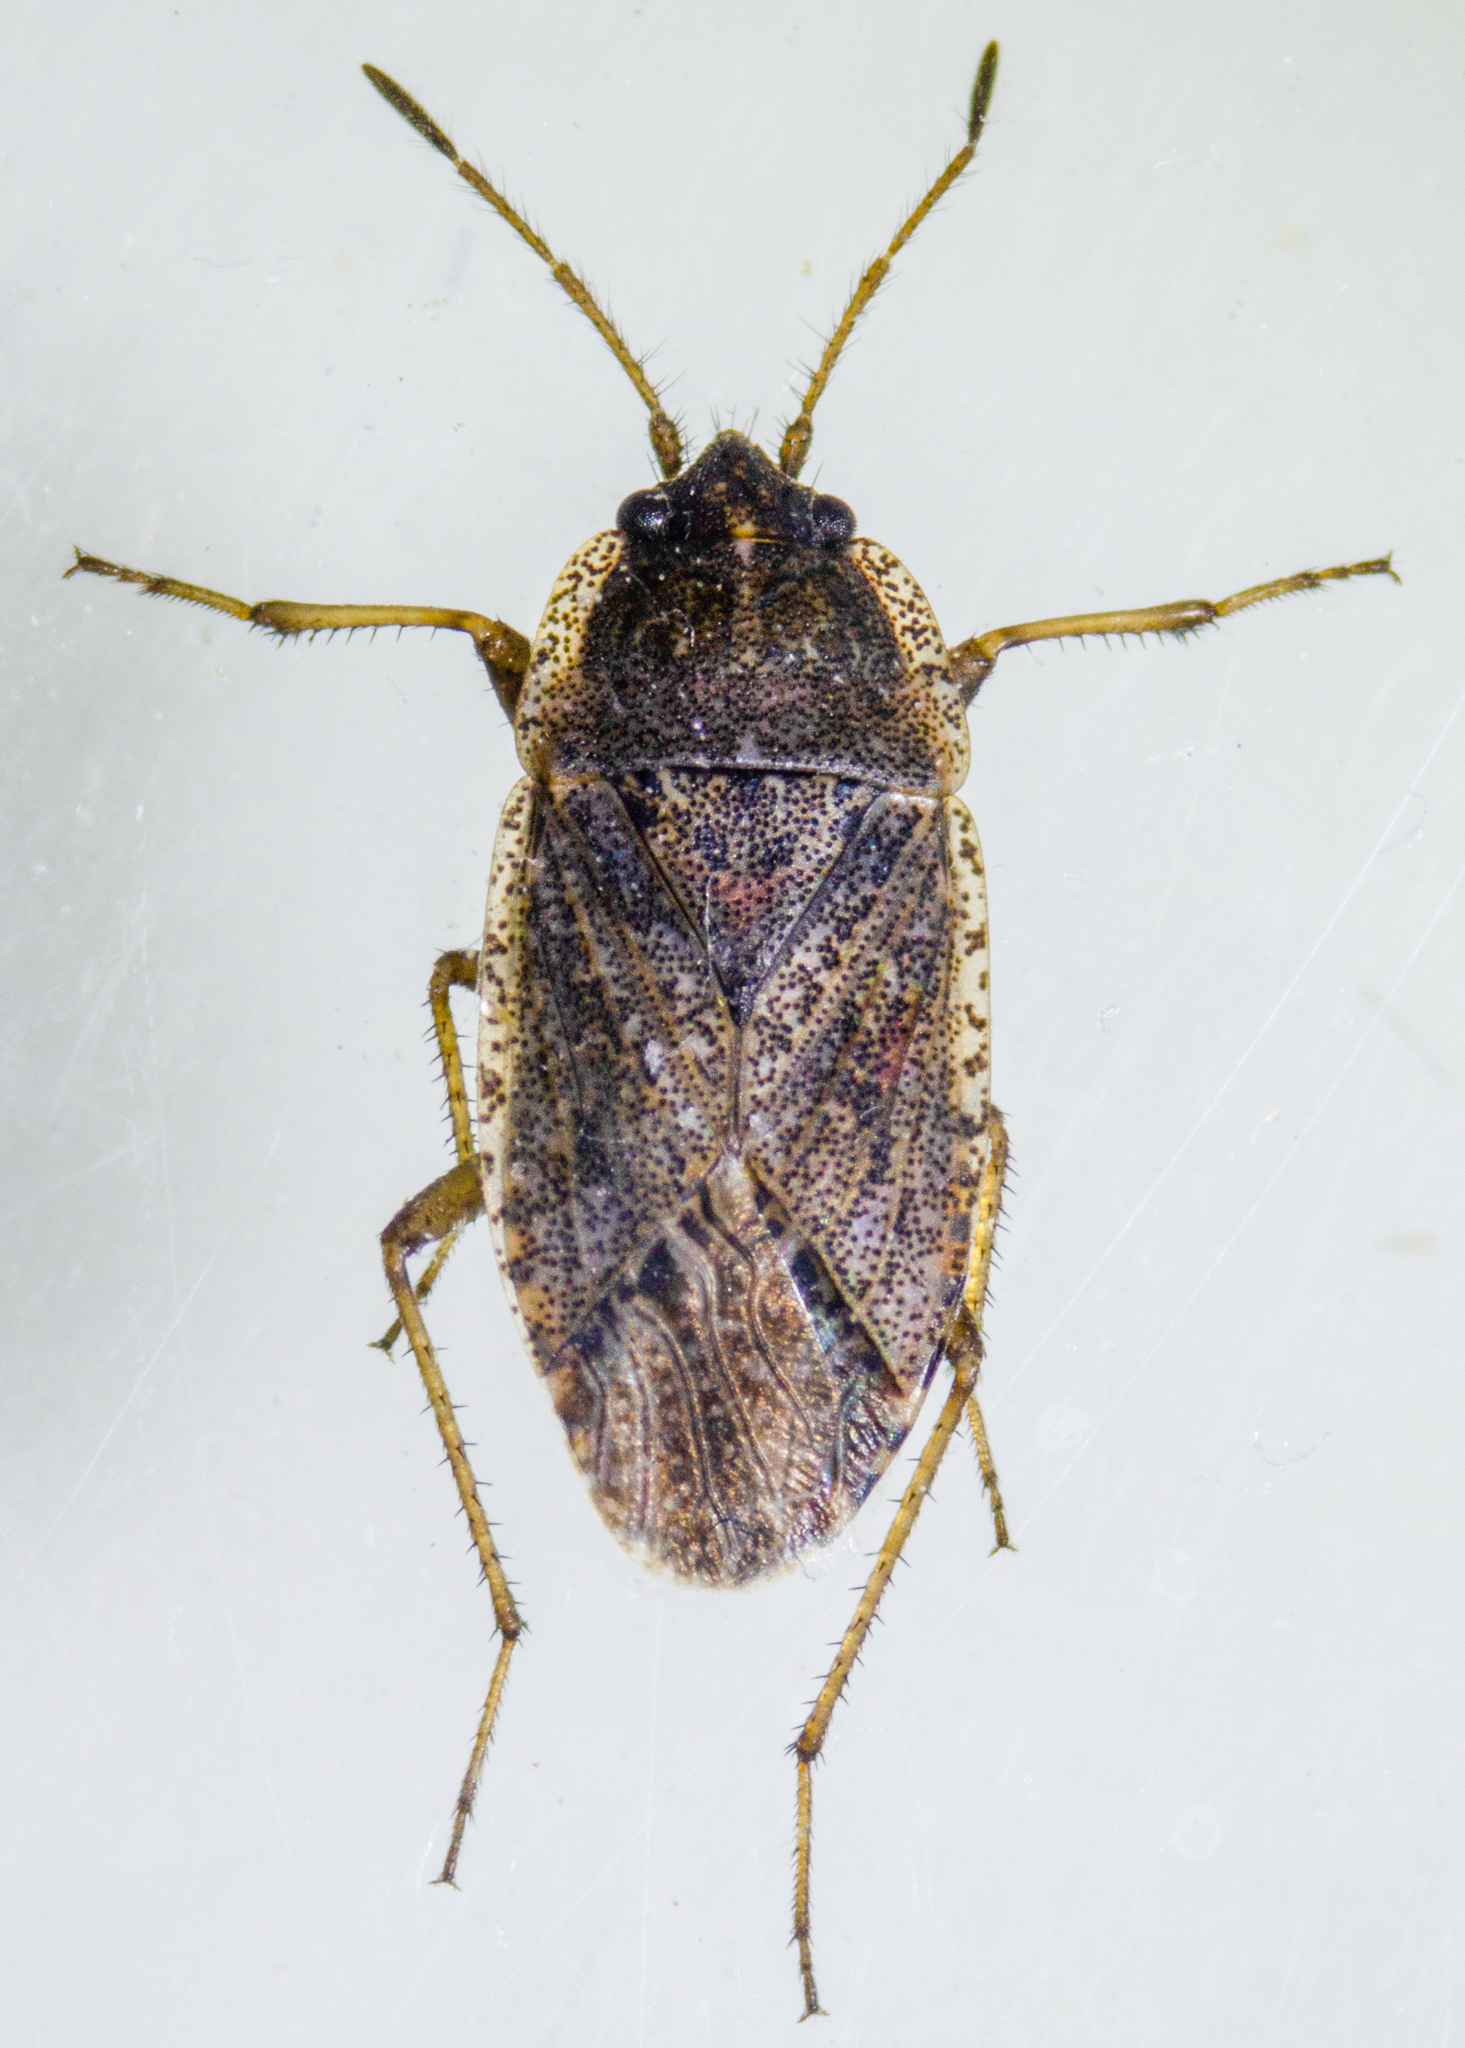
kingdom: Animalia
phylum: Arthropoda
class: Insecta
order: Hemiptera
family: Rhyparochromidae
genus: Emblethis
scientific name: Emblethis vicarius
